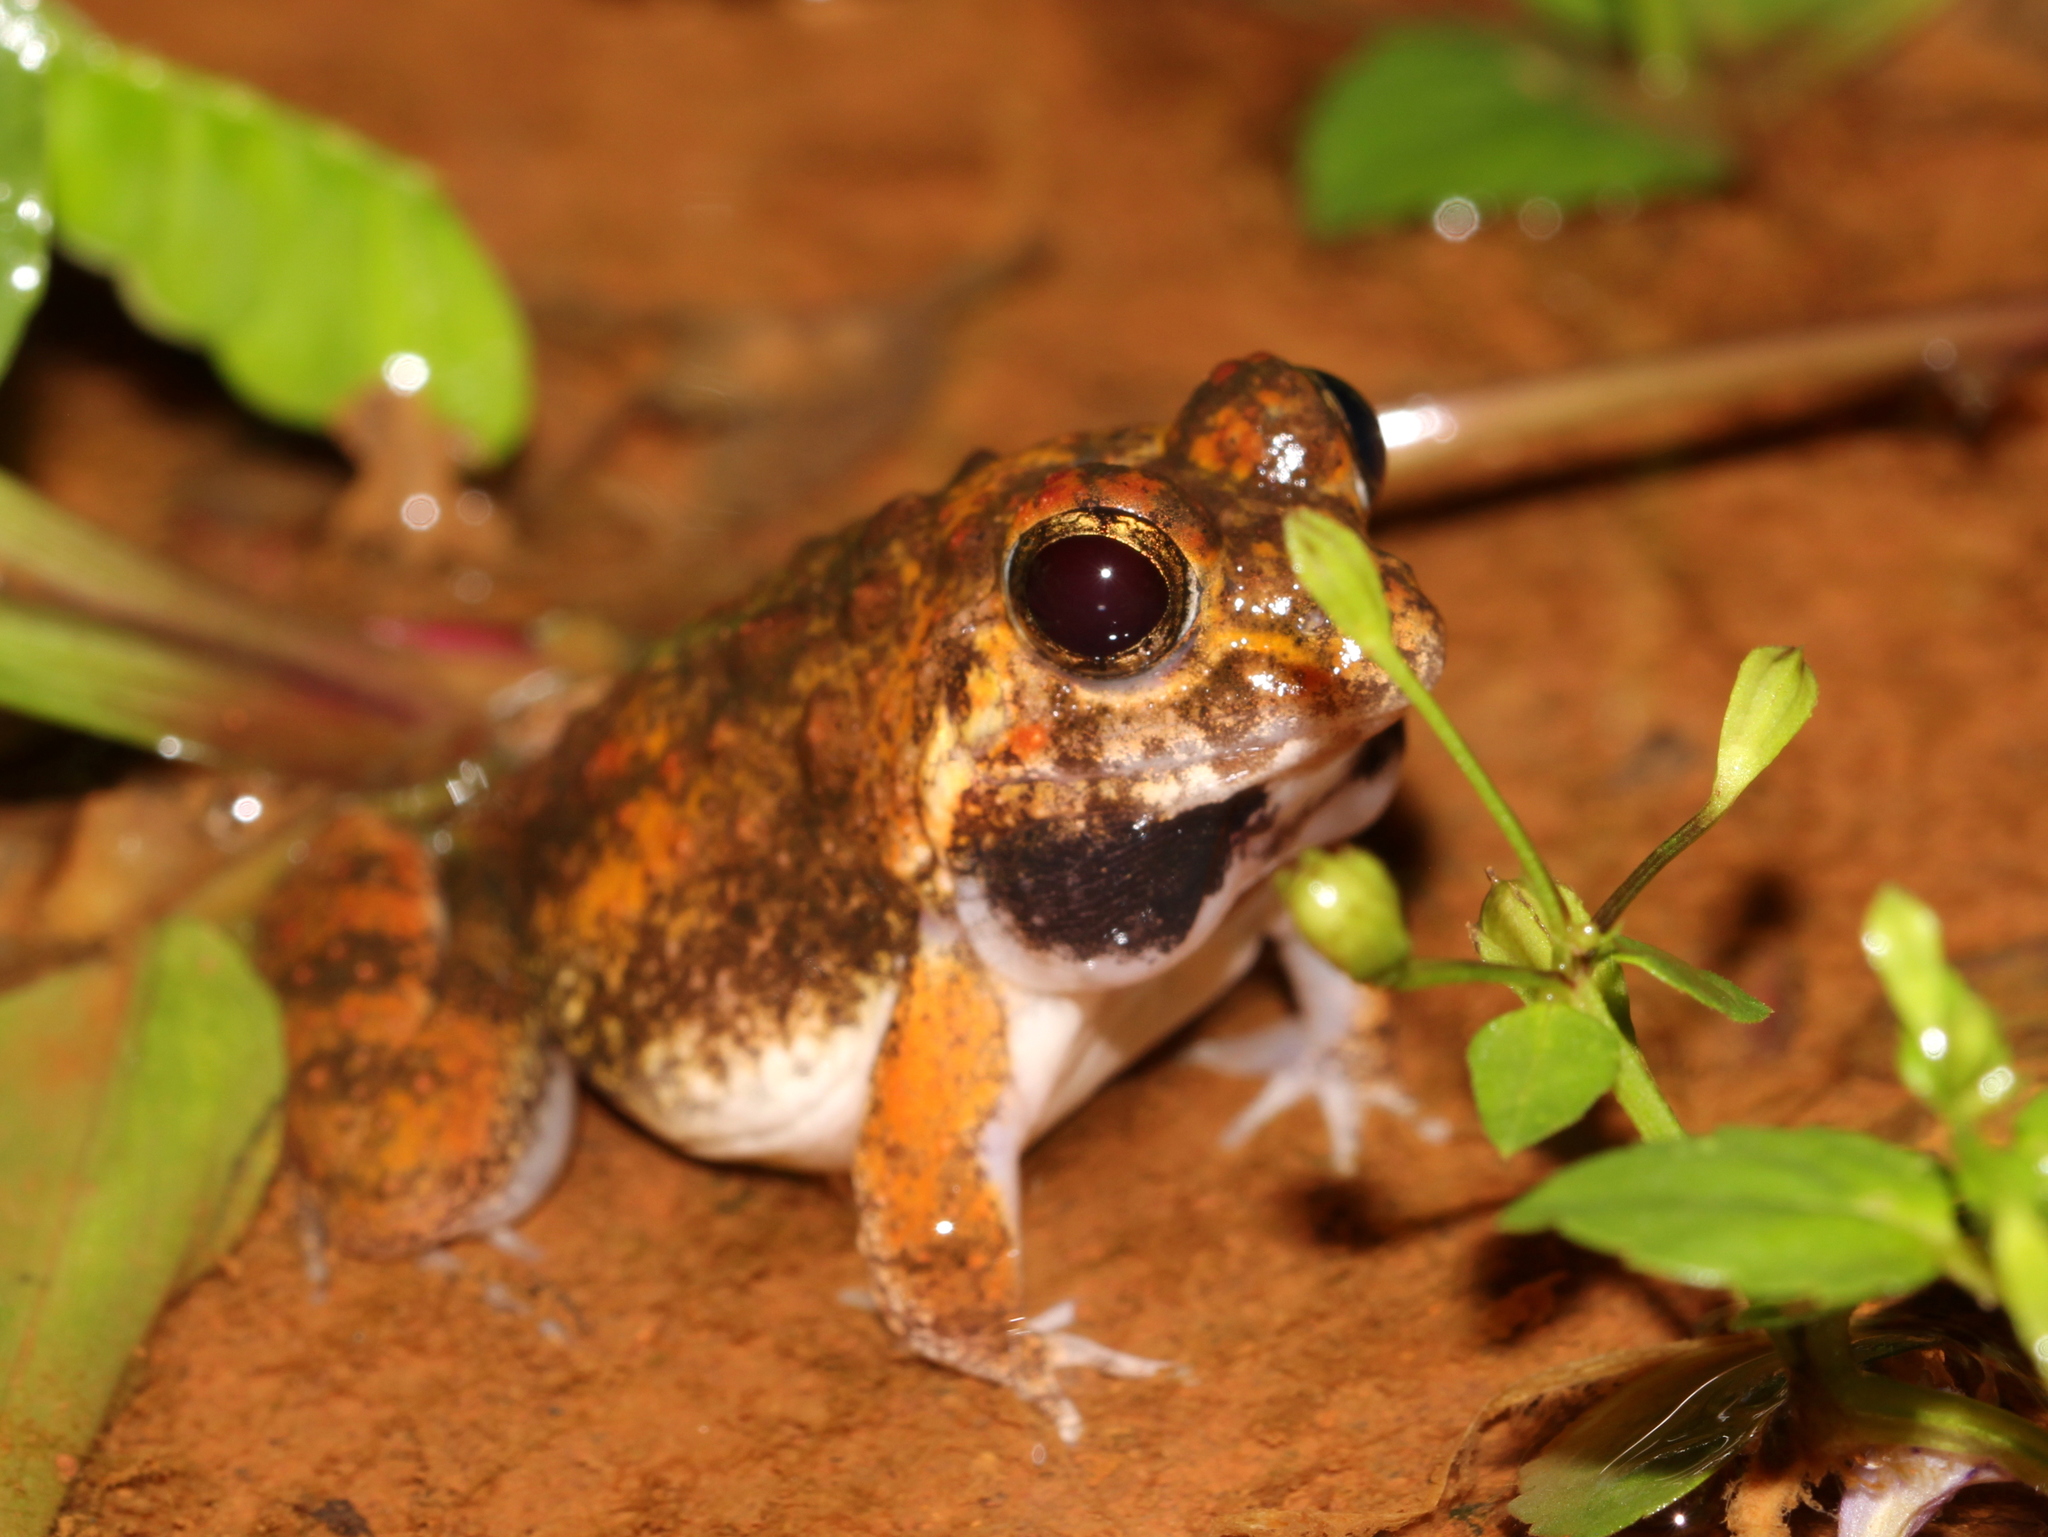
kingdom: Animalia
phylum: Chordata
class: Amphibia
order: Anura
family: Dicroglossidae
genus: Minervarya
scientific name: Minervarya rufescens
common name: Malabar wart frog
